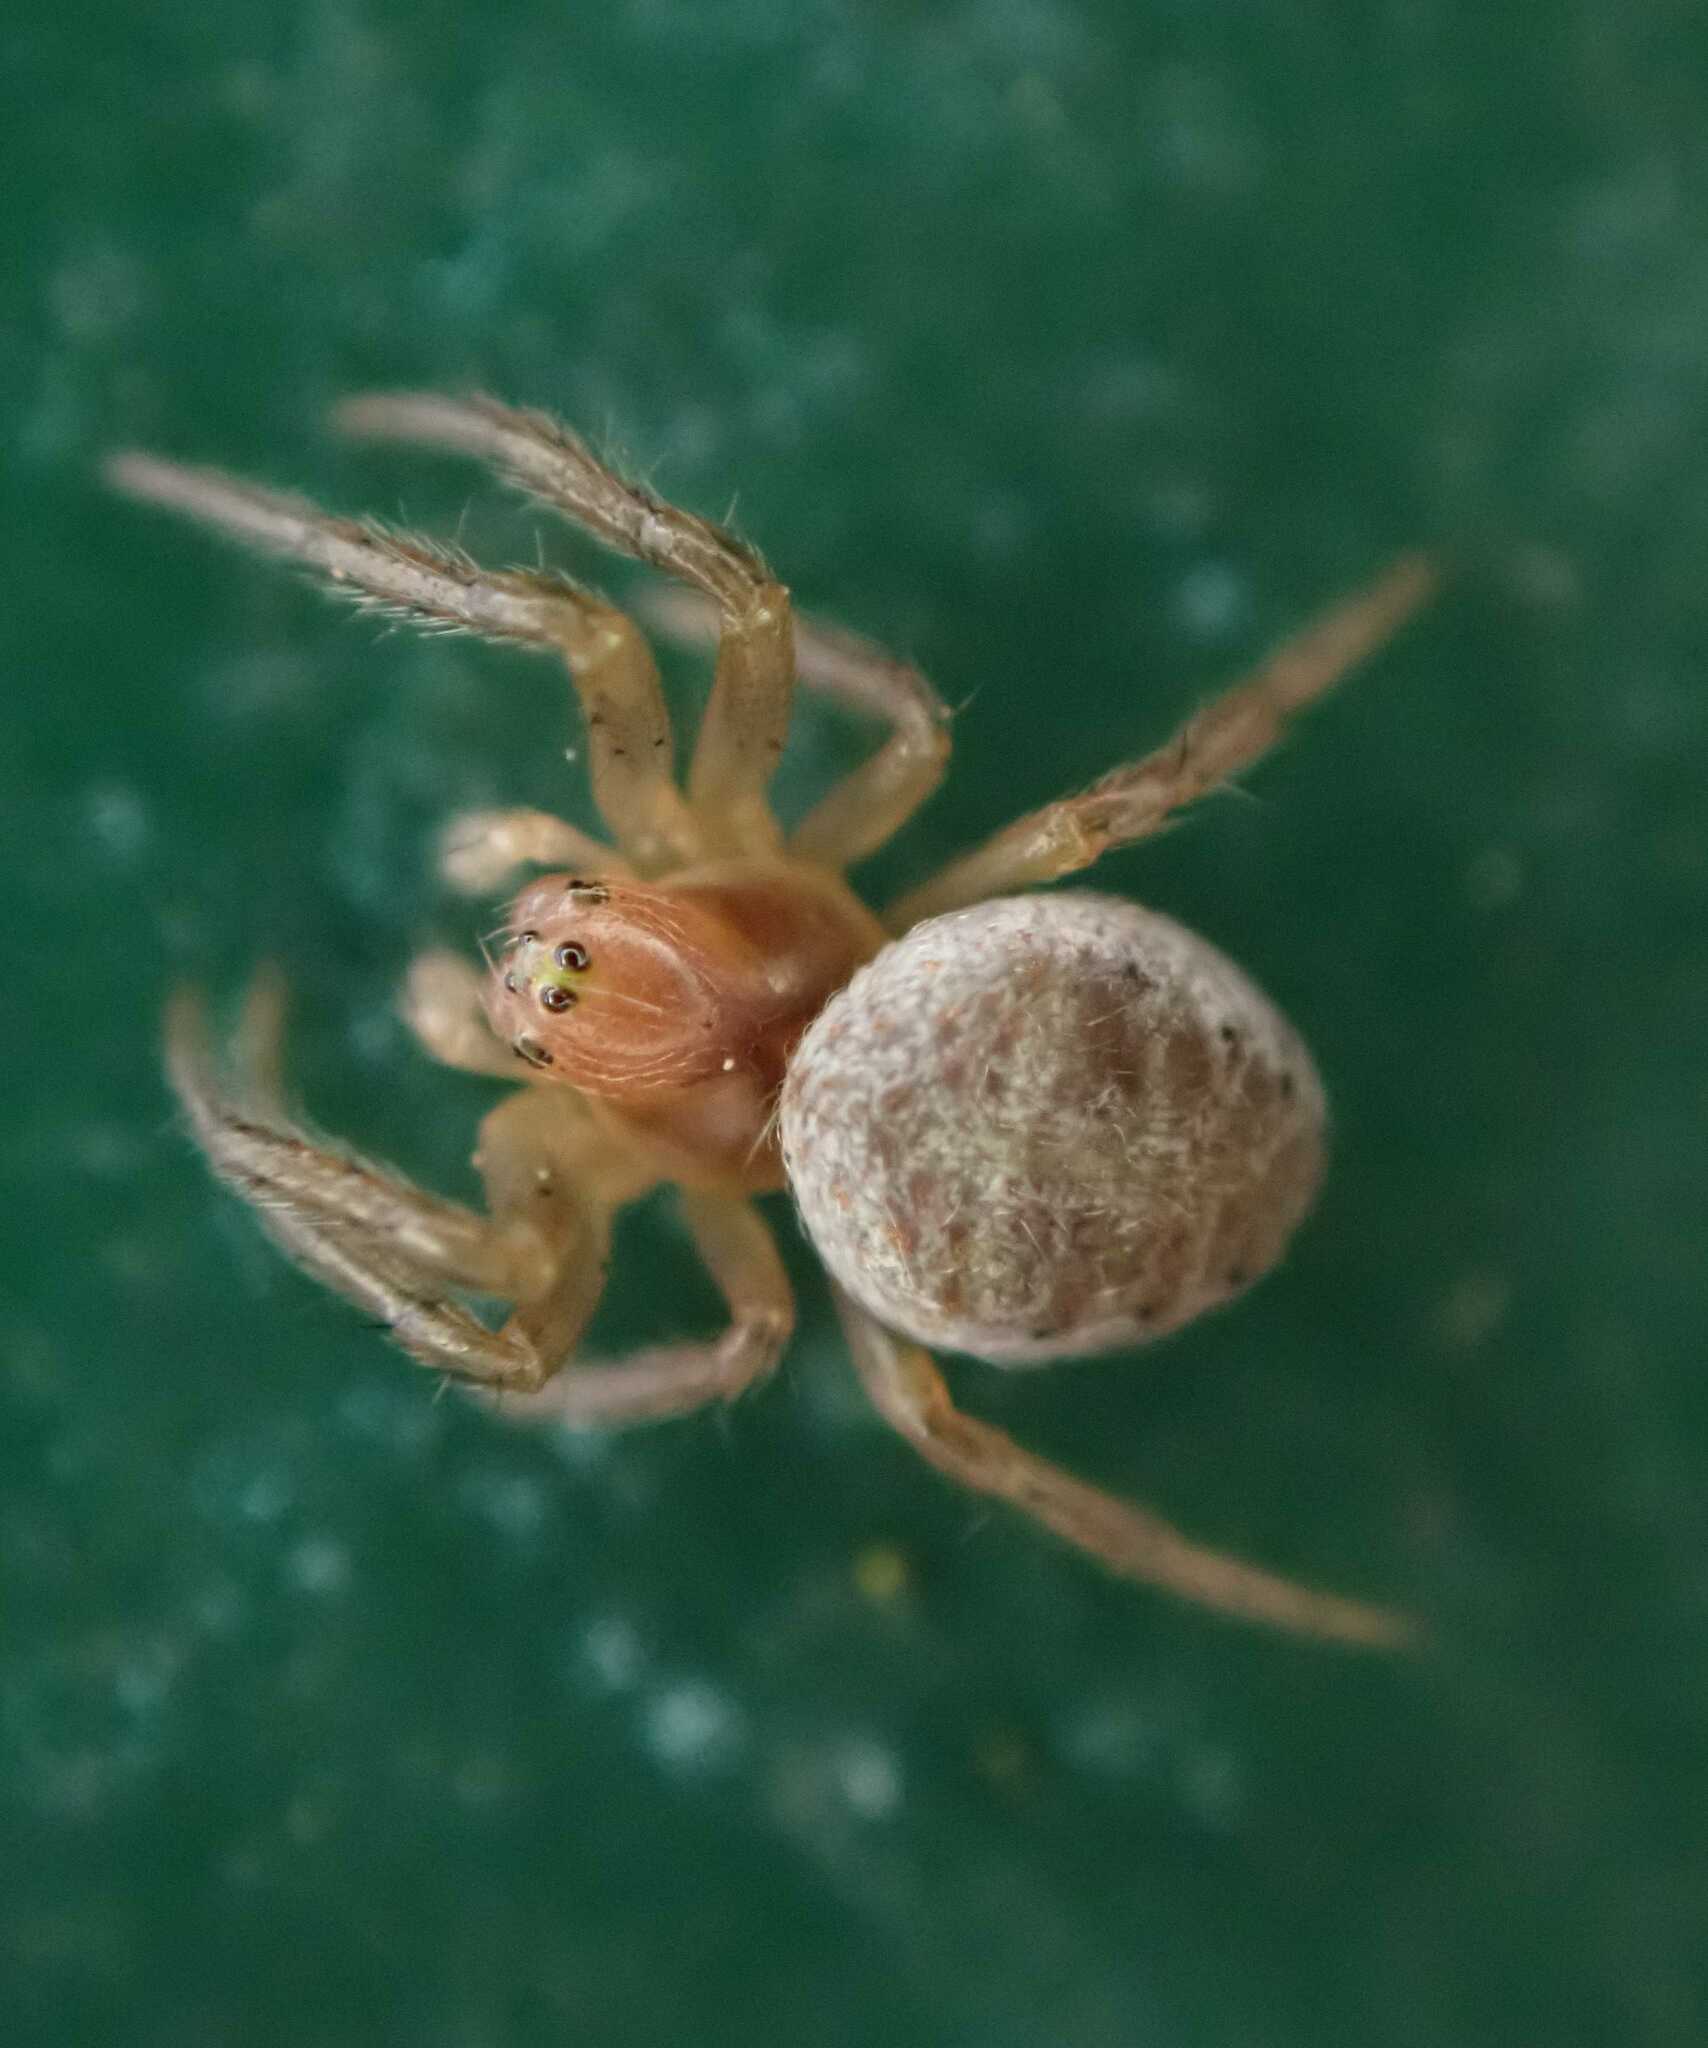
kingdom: Animalia
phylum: Arthropoda
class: Arachnida
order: Araneae
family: Araneidae
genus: Araniella
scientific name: Araniella
